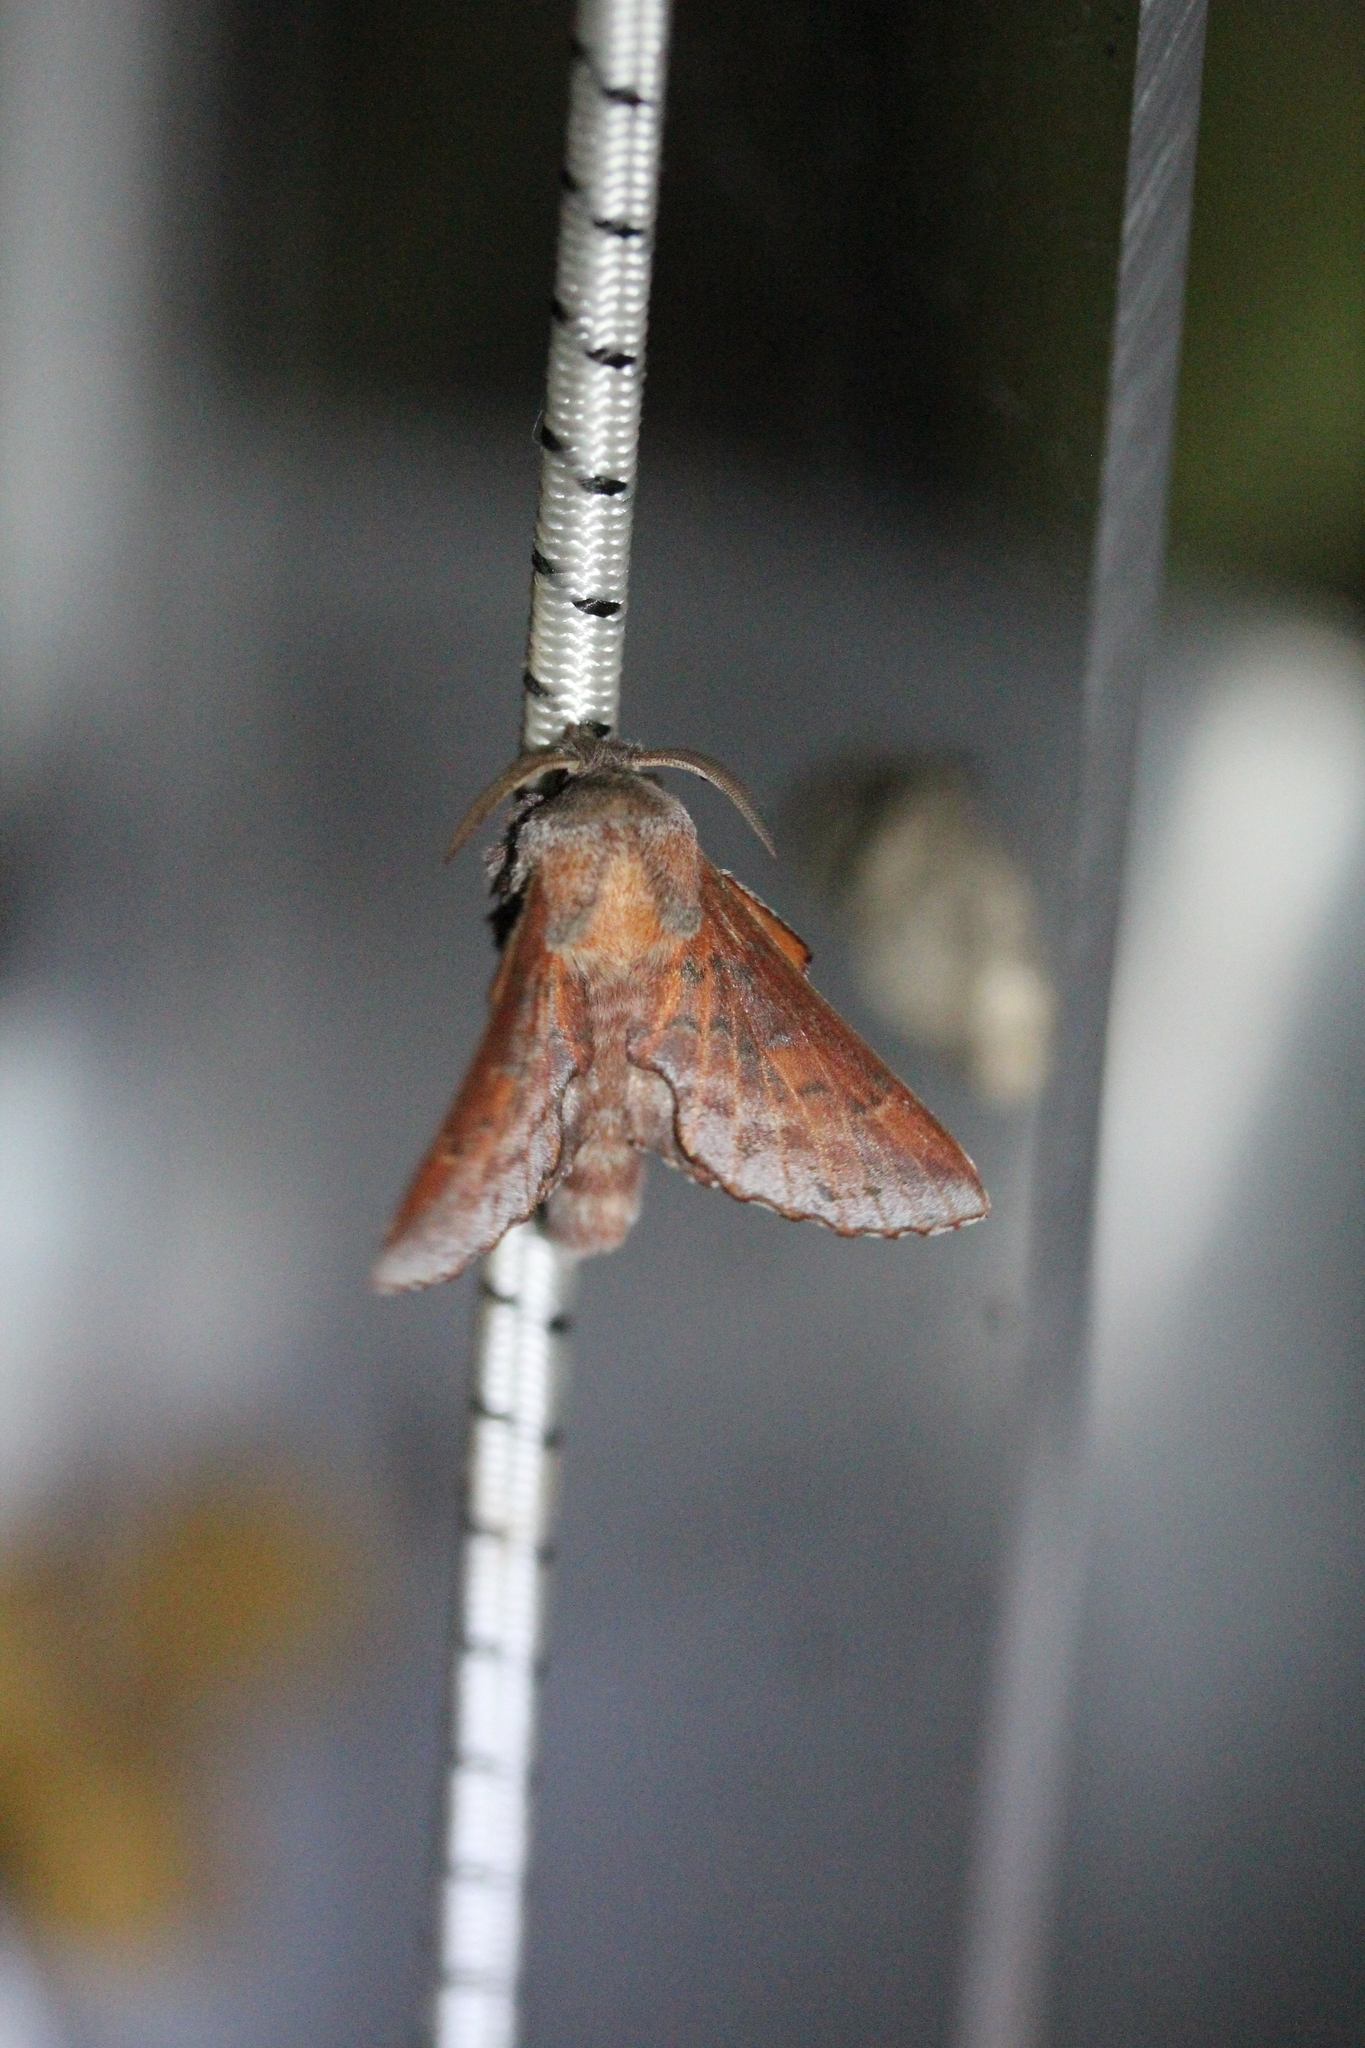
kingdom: Animalia
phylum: Arthropoda
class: Insecta
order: Lepidoptera
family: Lasiocampidae
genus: Phyllodesma
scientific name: Phyllodesma americana
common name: American lappet moth
